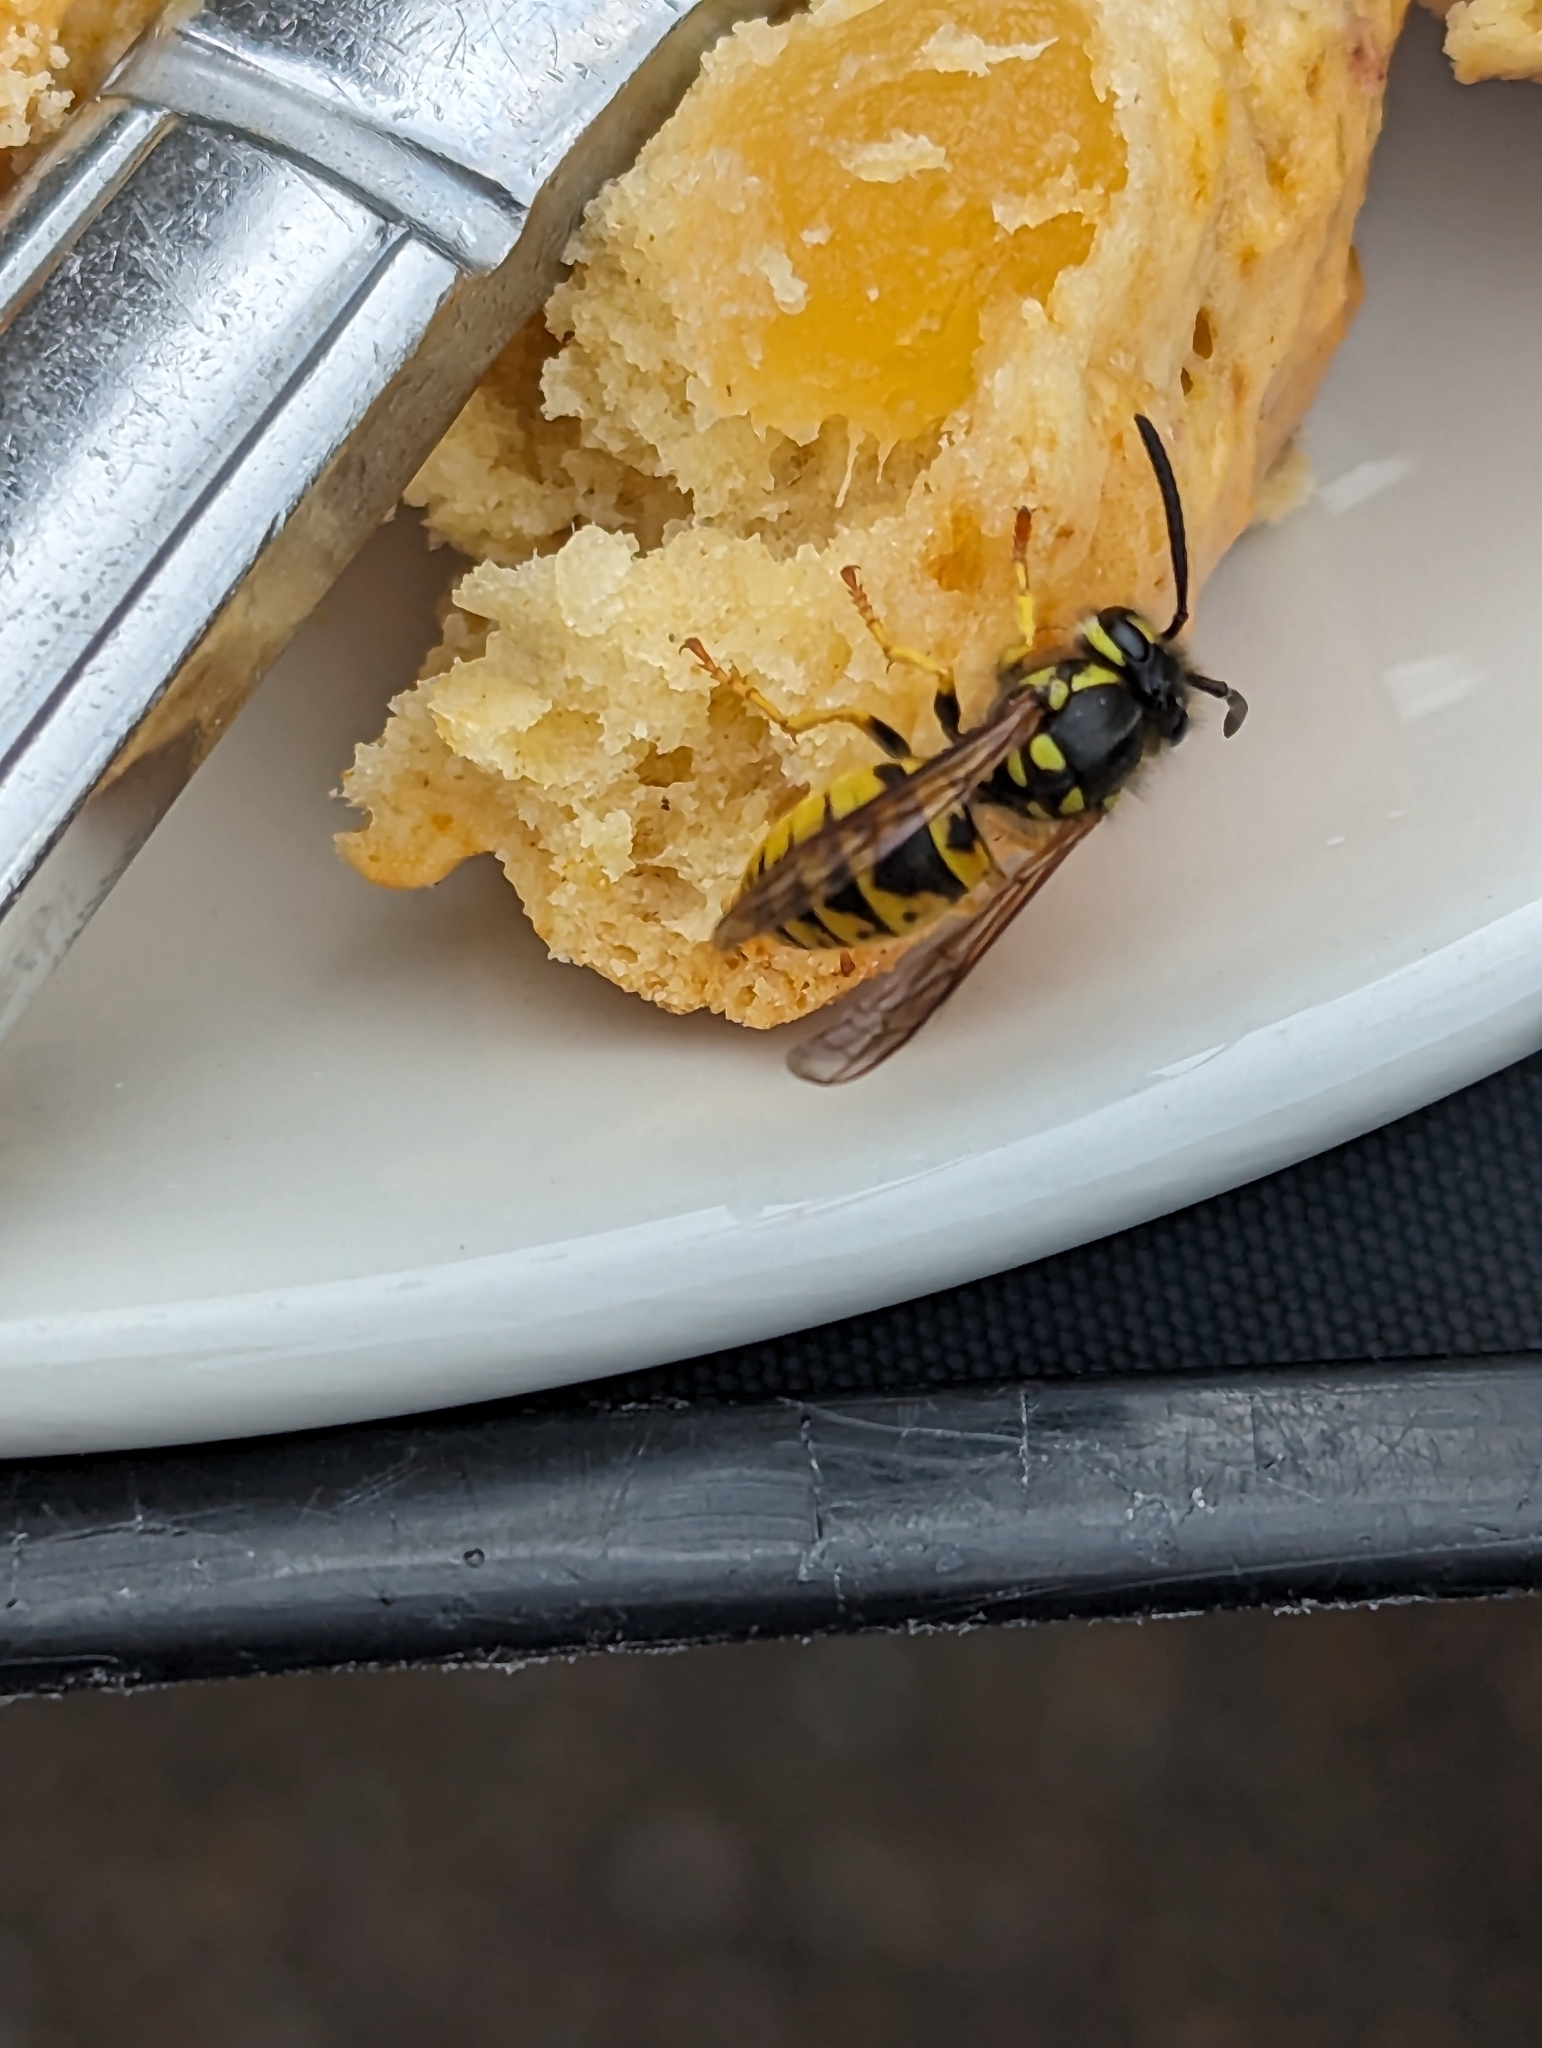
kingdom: Animalia
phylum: Arthropoda
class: Insecta
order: Hymenoptera
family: Vespidae
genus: Vespula
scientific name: Vespula germanica
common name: German wasp
